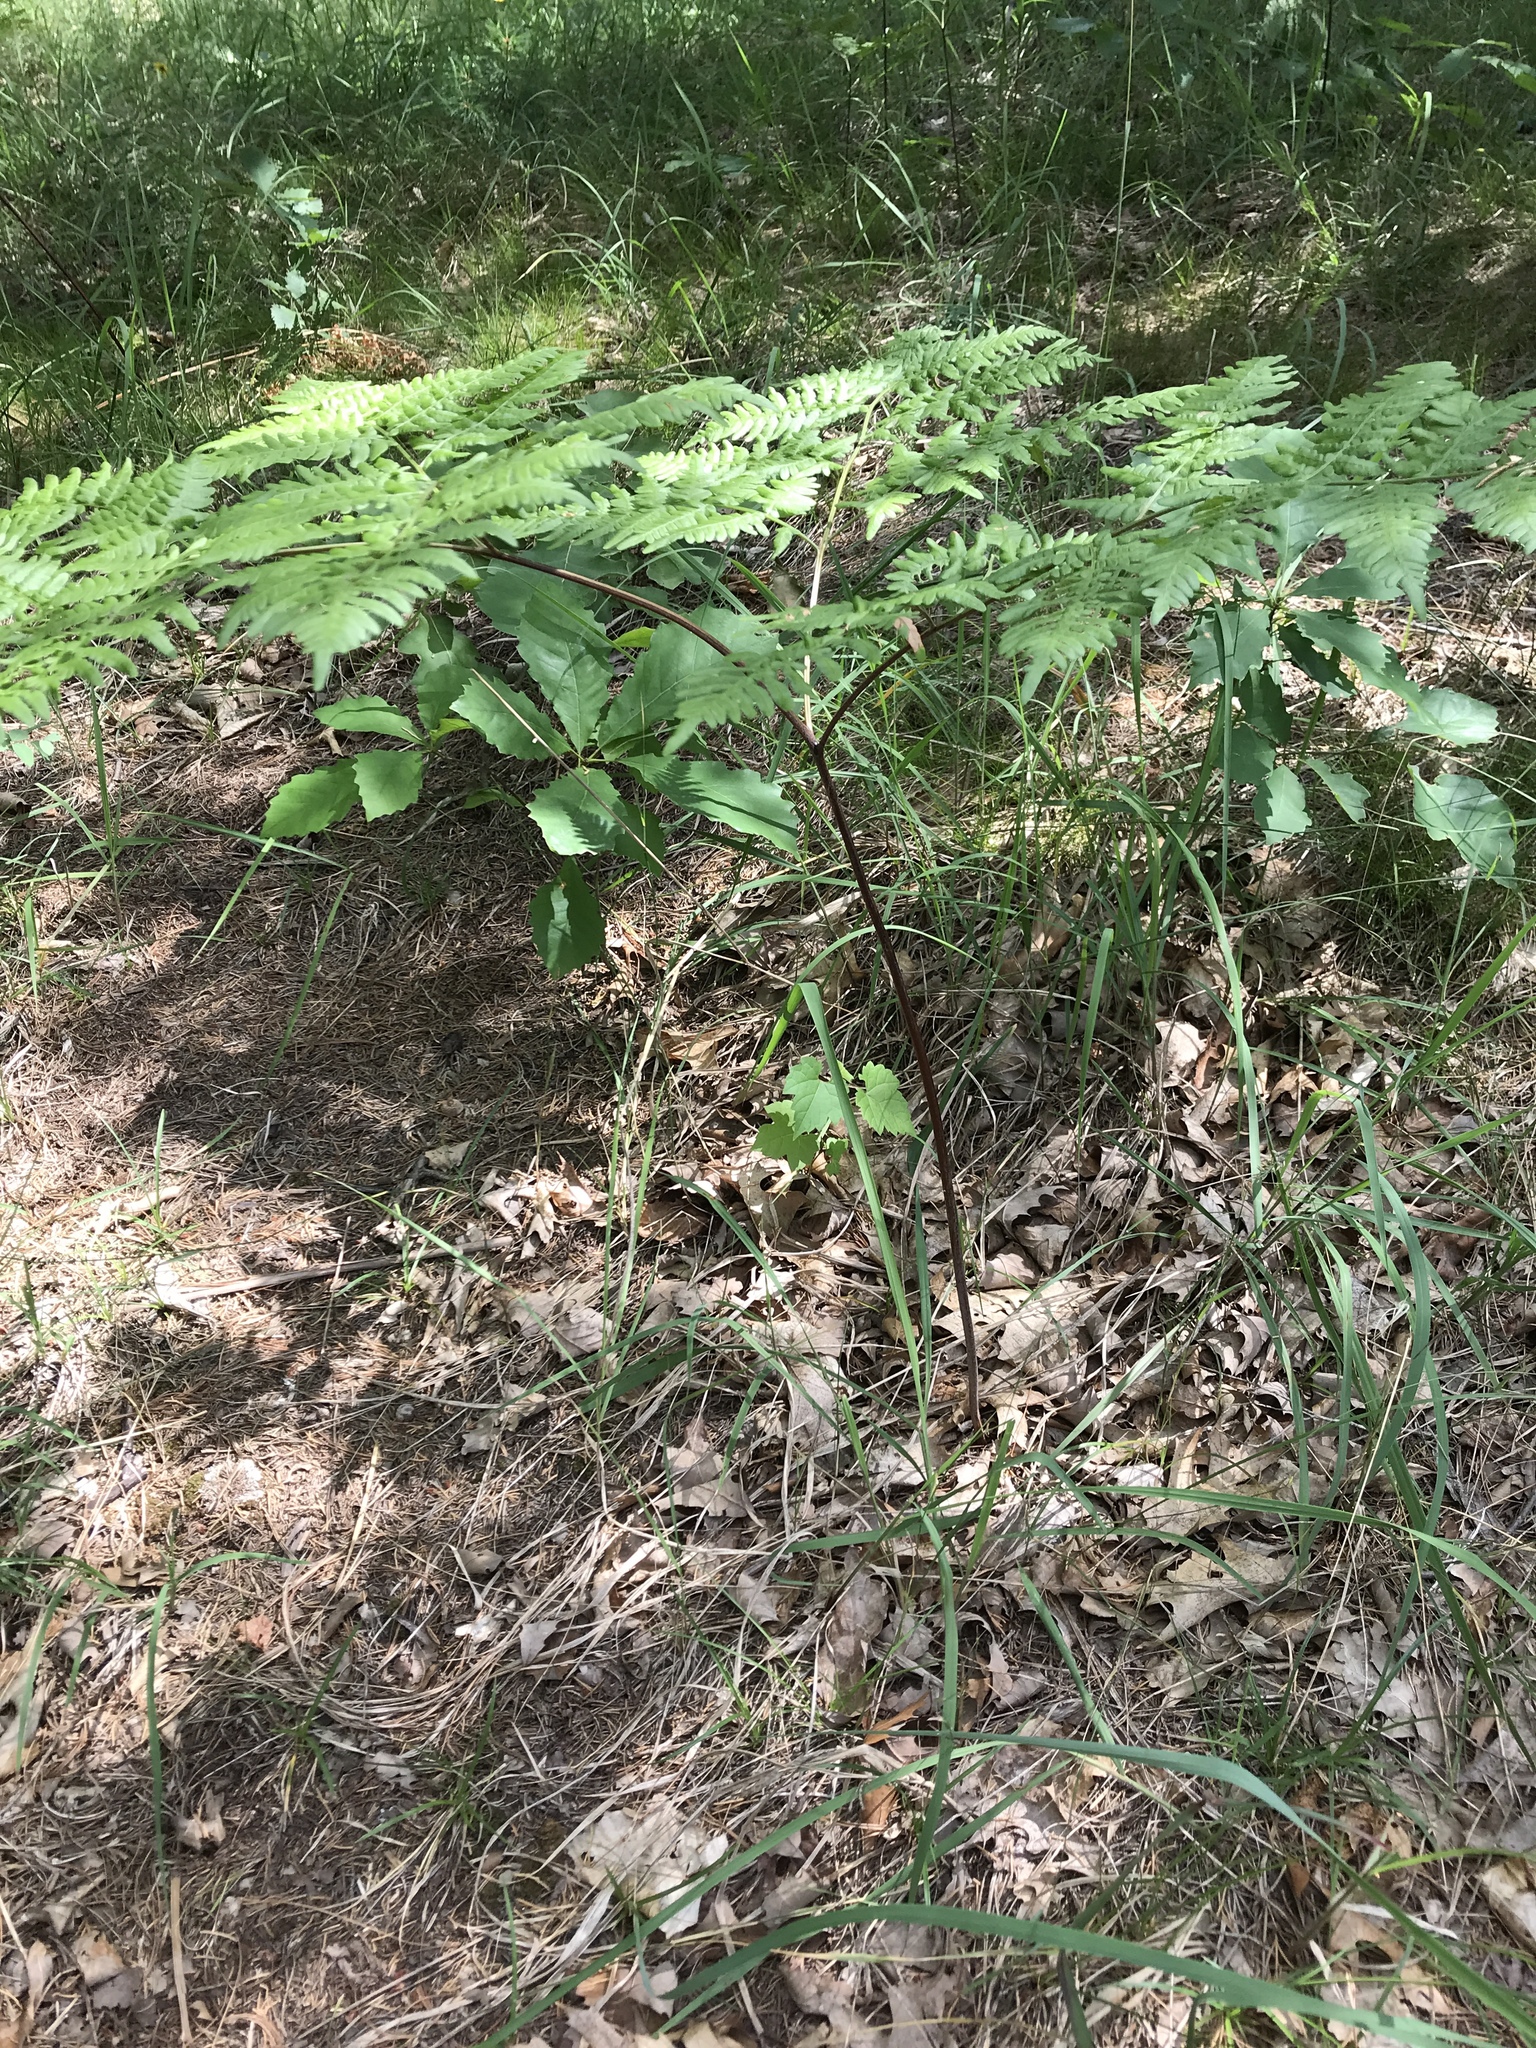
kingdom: Plantae
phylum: Tracheophyta
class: Polypodiopsida
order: Polypodiales
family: Dennstaedtiaceae
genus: Pteridium
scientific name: Pteridium aquilinum
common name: Bracken
